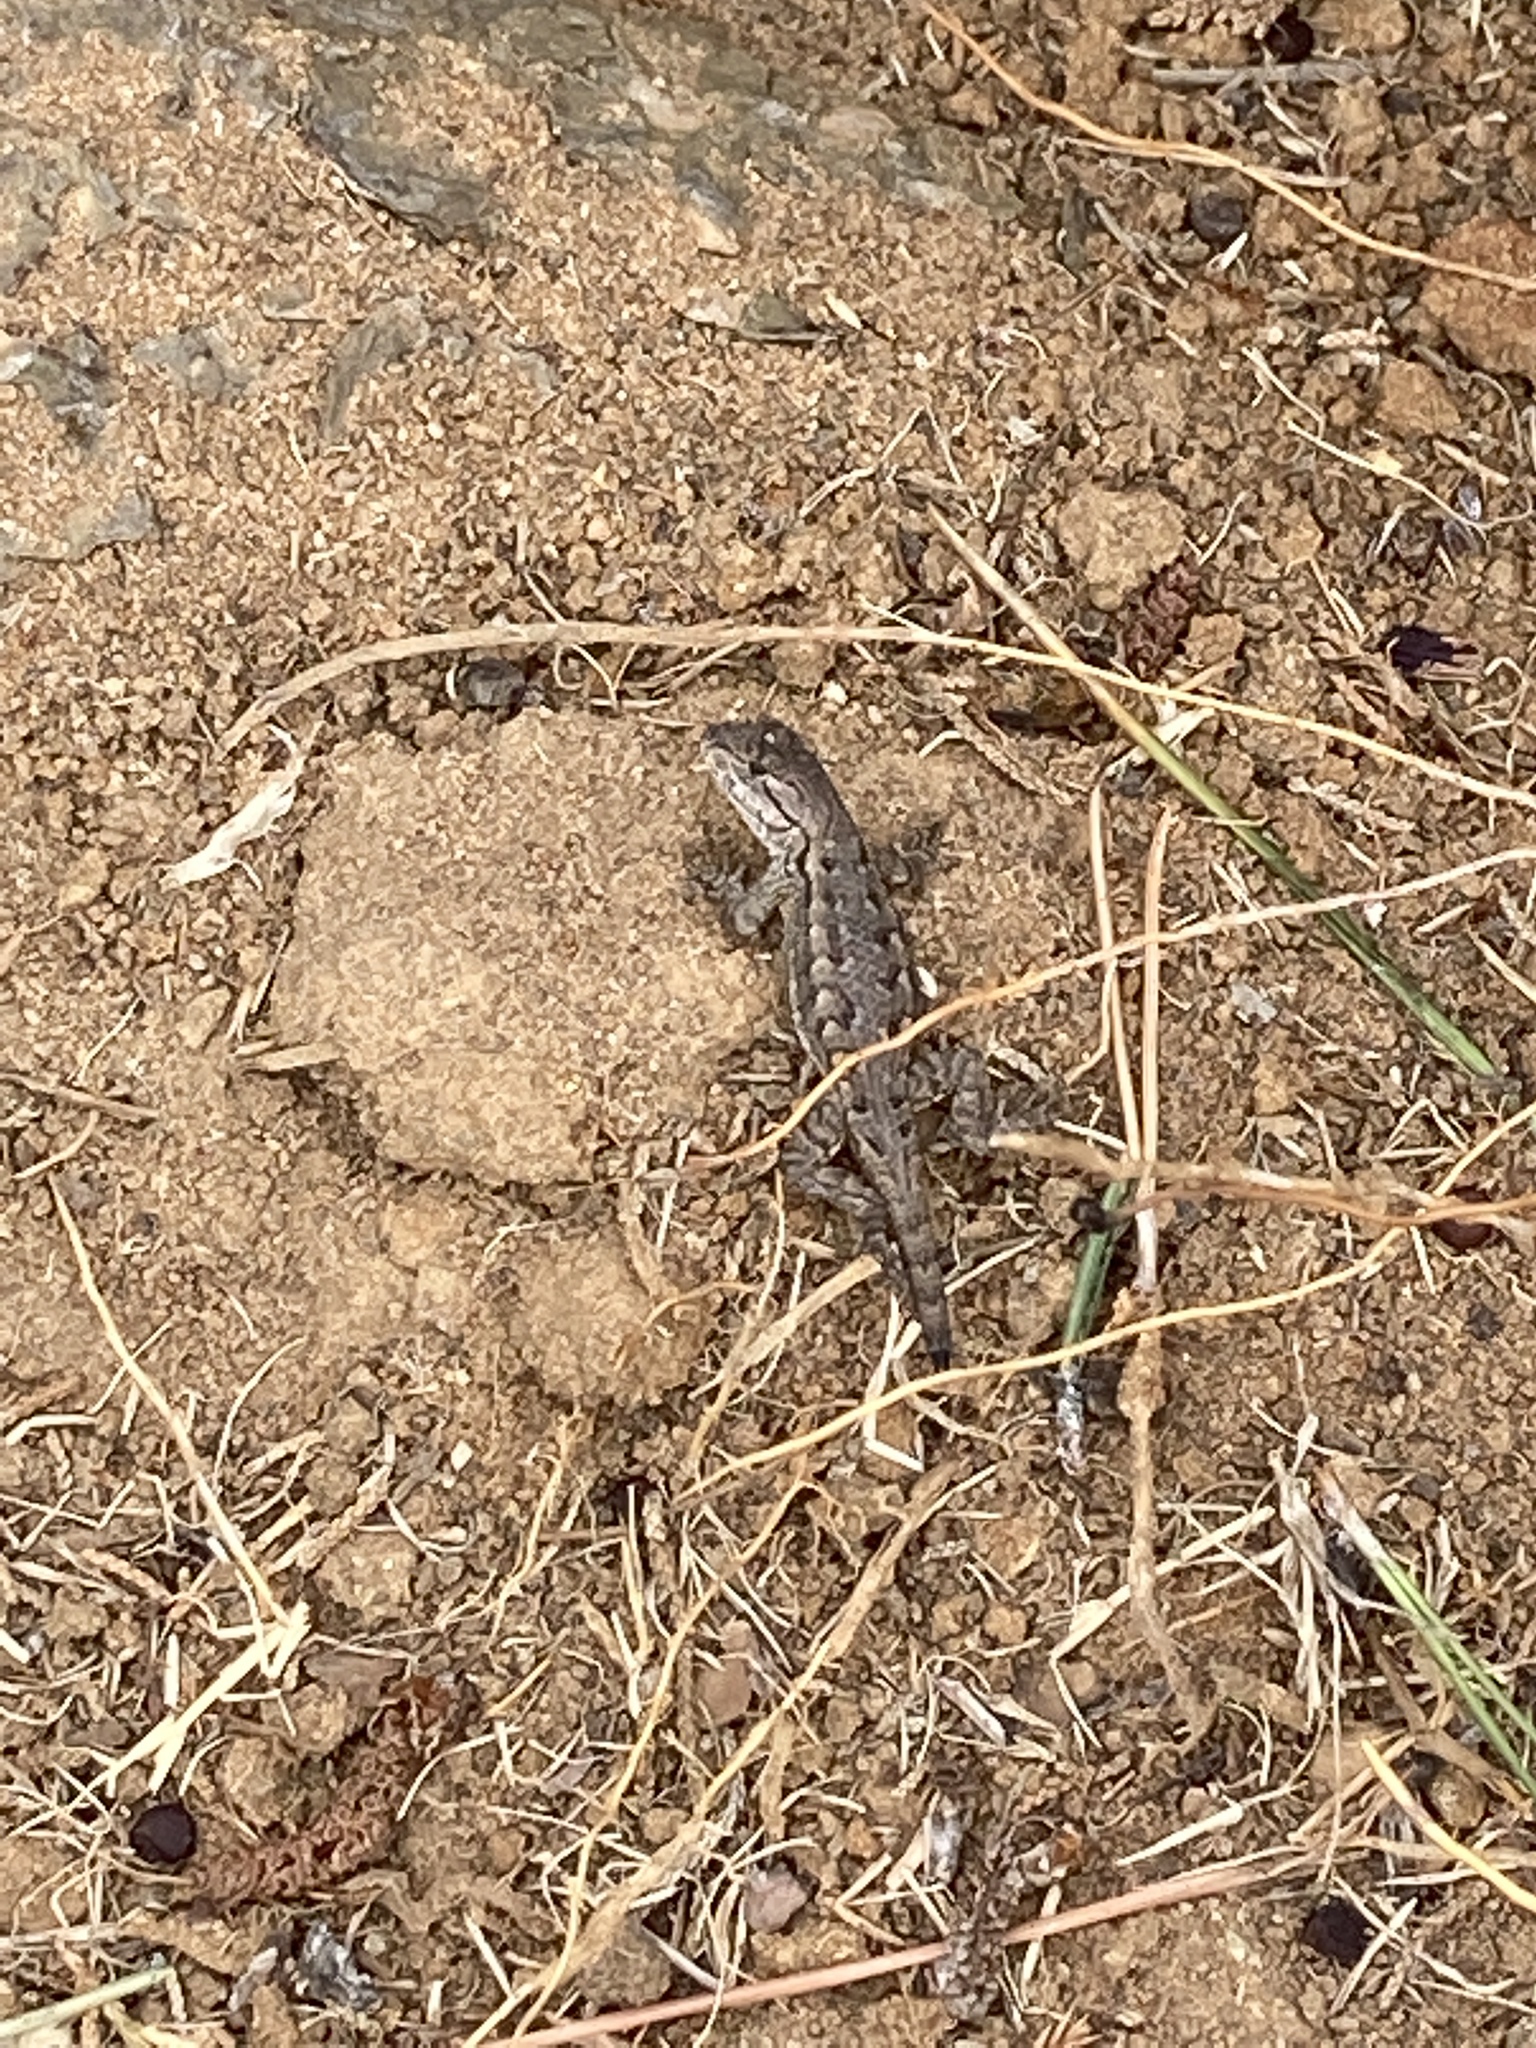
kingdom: Animalia
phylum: Chordata
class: Squamata
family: Phrynosomatidae
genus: Sceloporus
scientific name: Sceloporus occidentalis
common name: Western fence lizard
